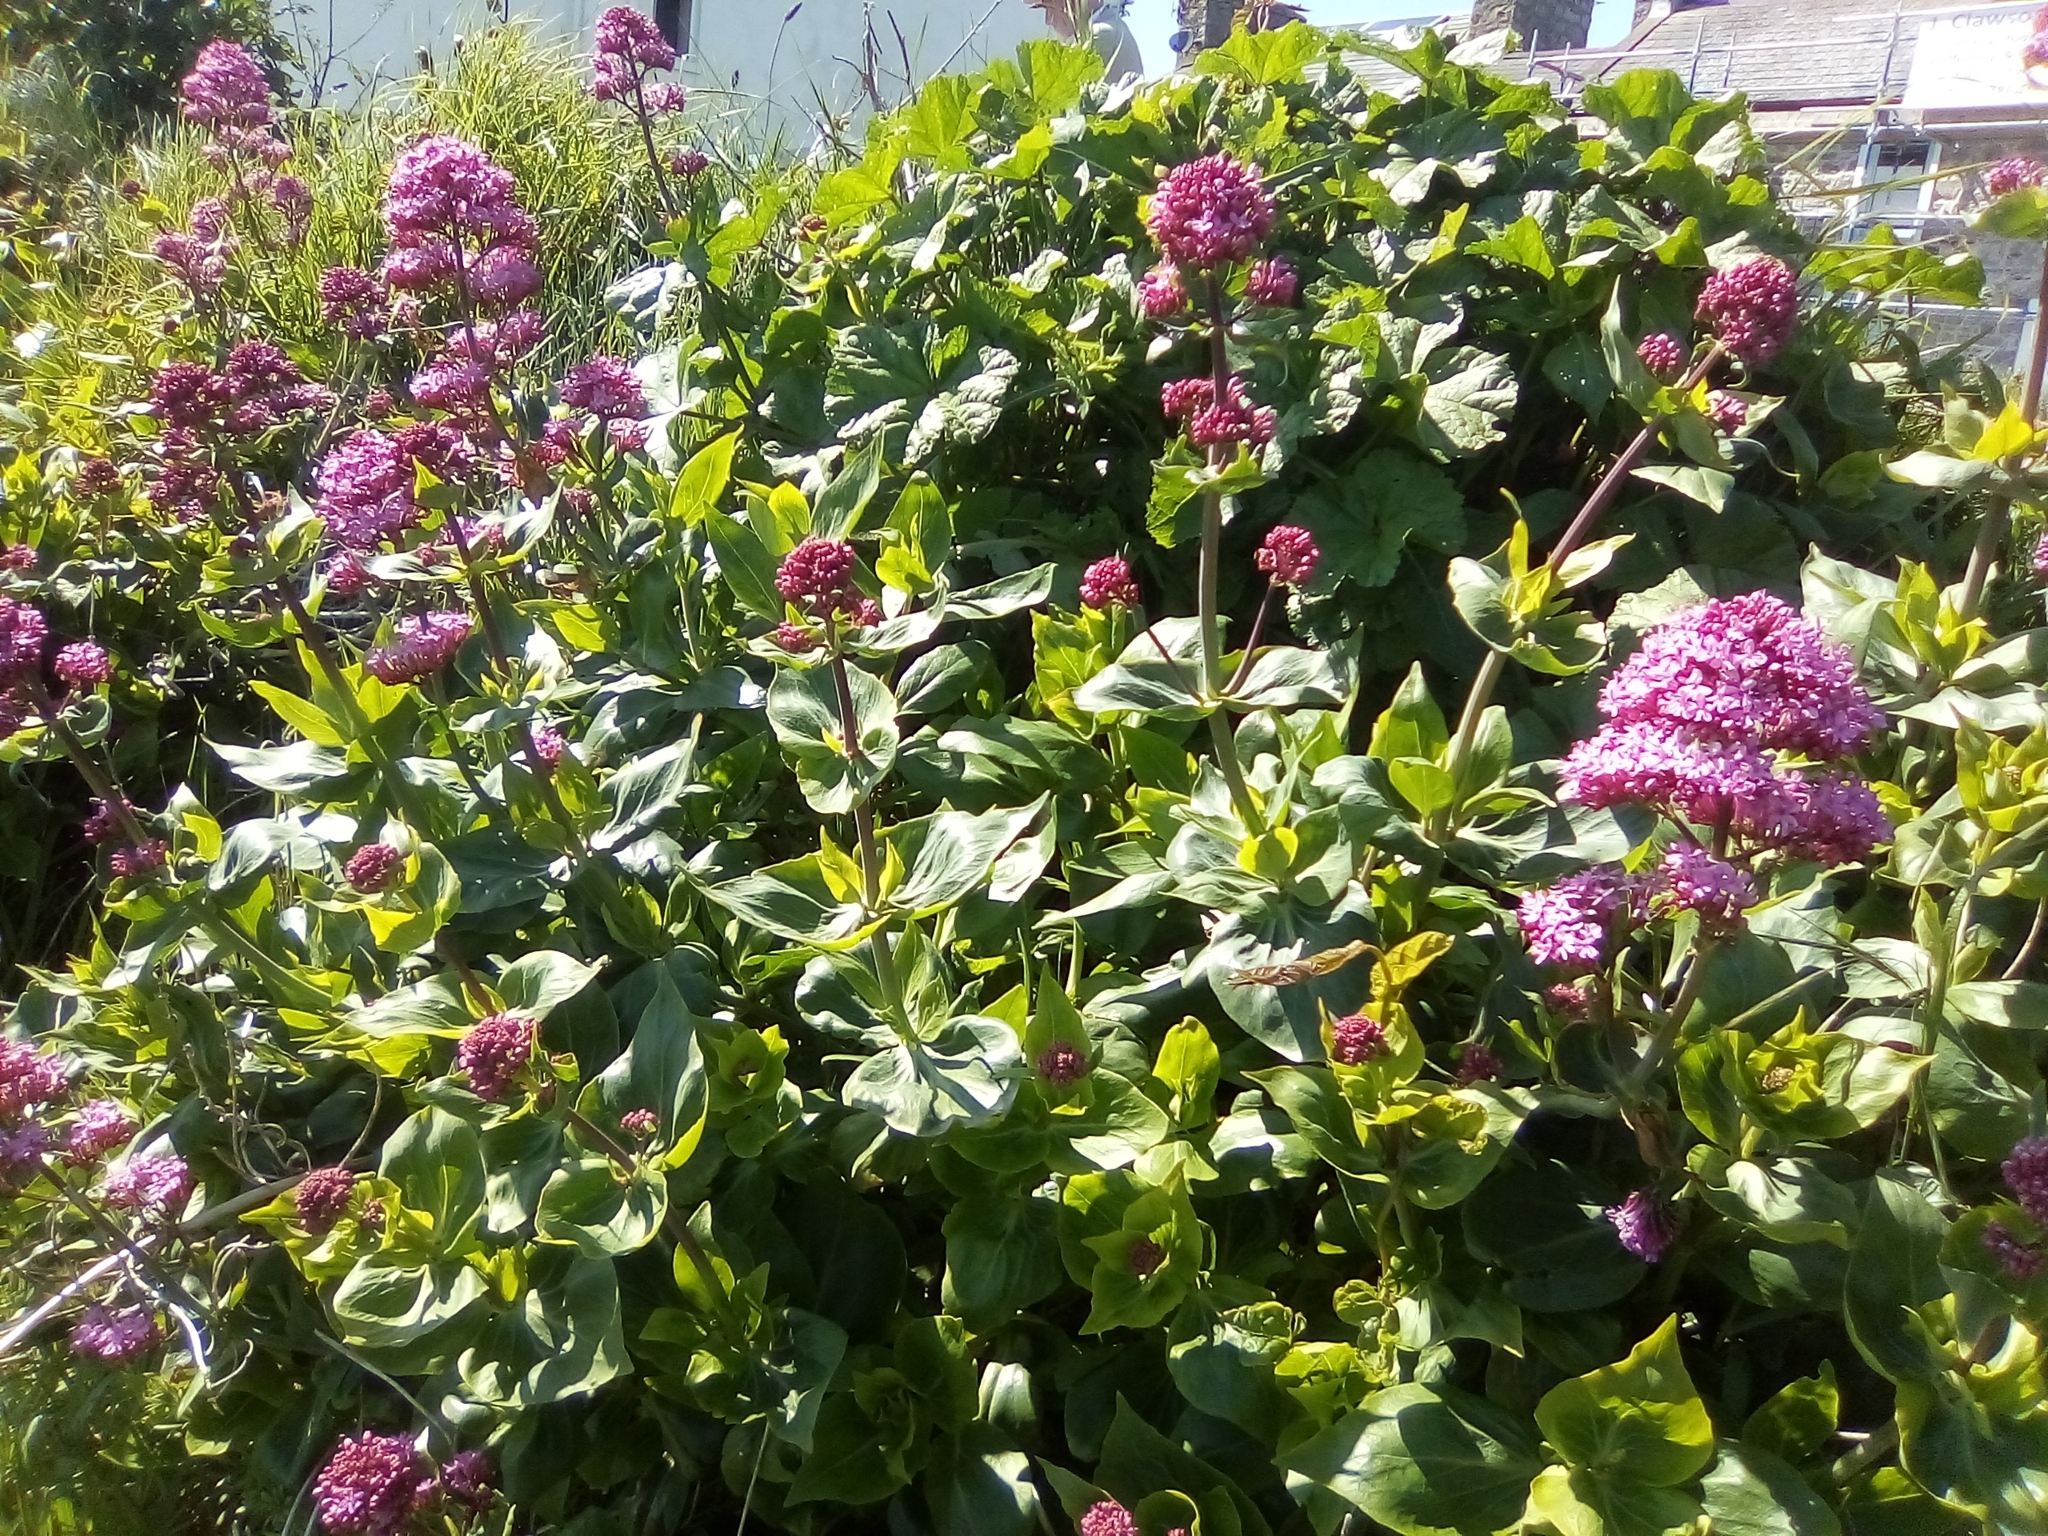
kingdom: Plantae
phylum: Tracheophyta
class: Magnoliopsida
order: Dipsacales
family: Caprifoliaceae
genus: Centranthus
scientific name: Centranthus ruber
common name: Red valerian
